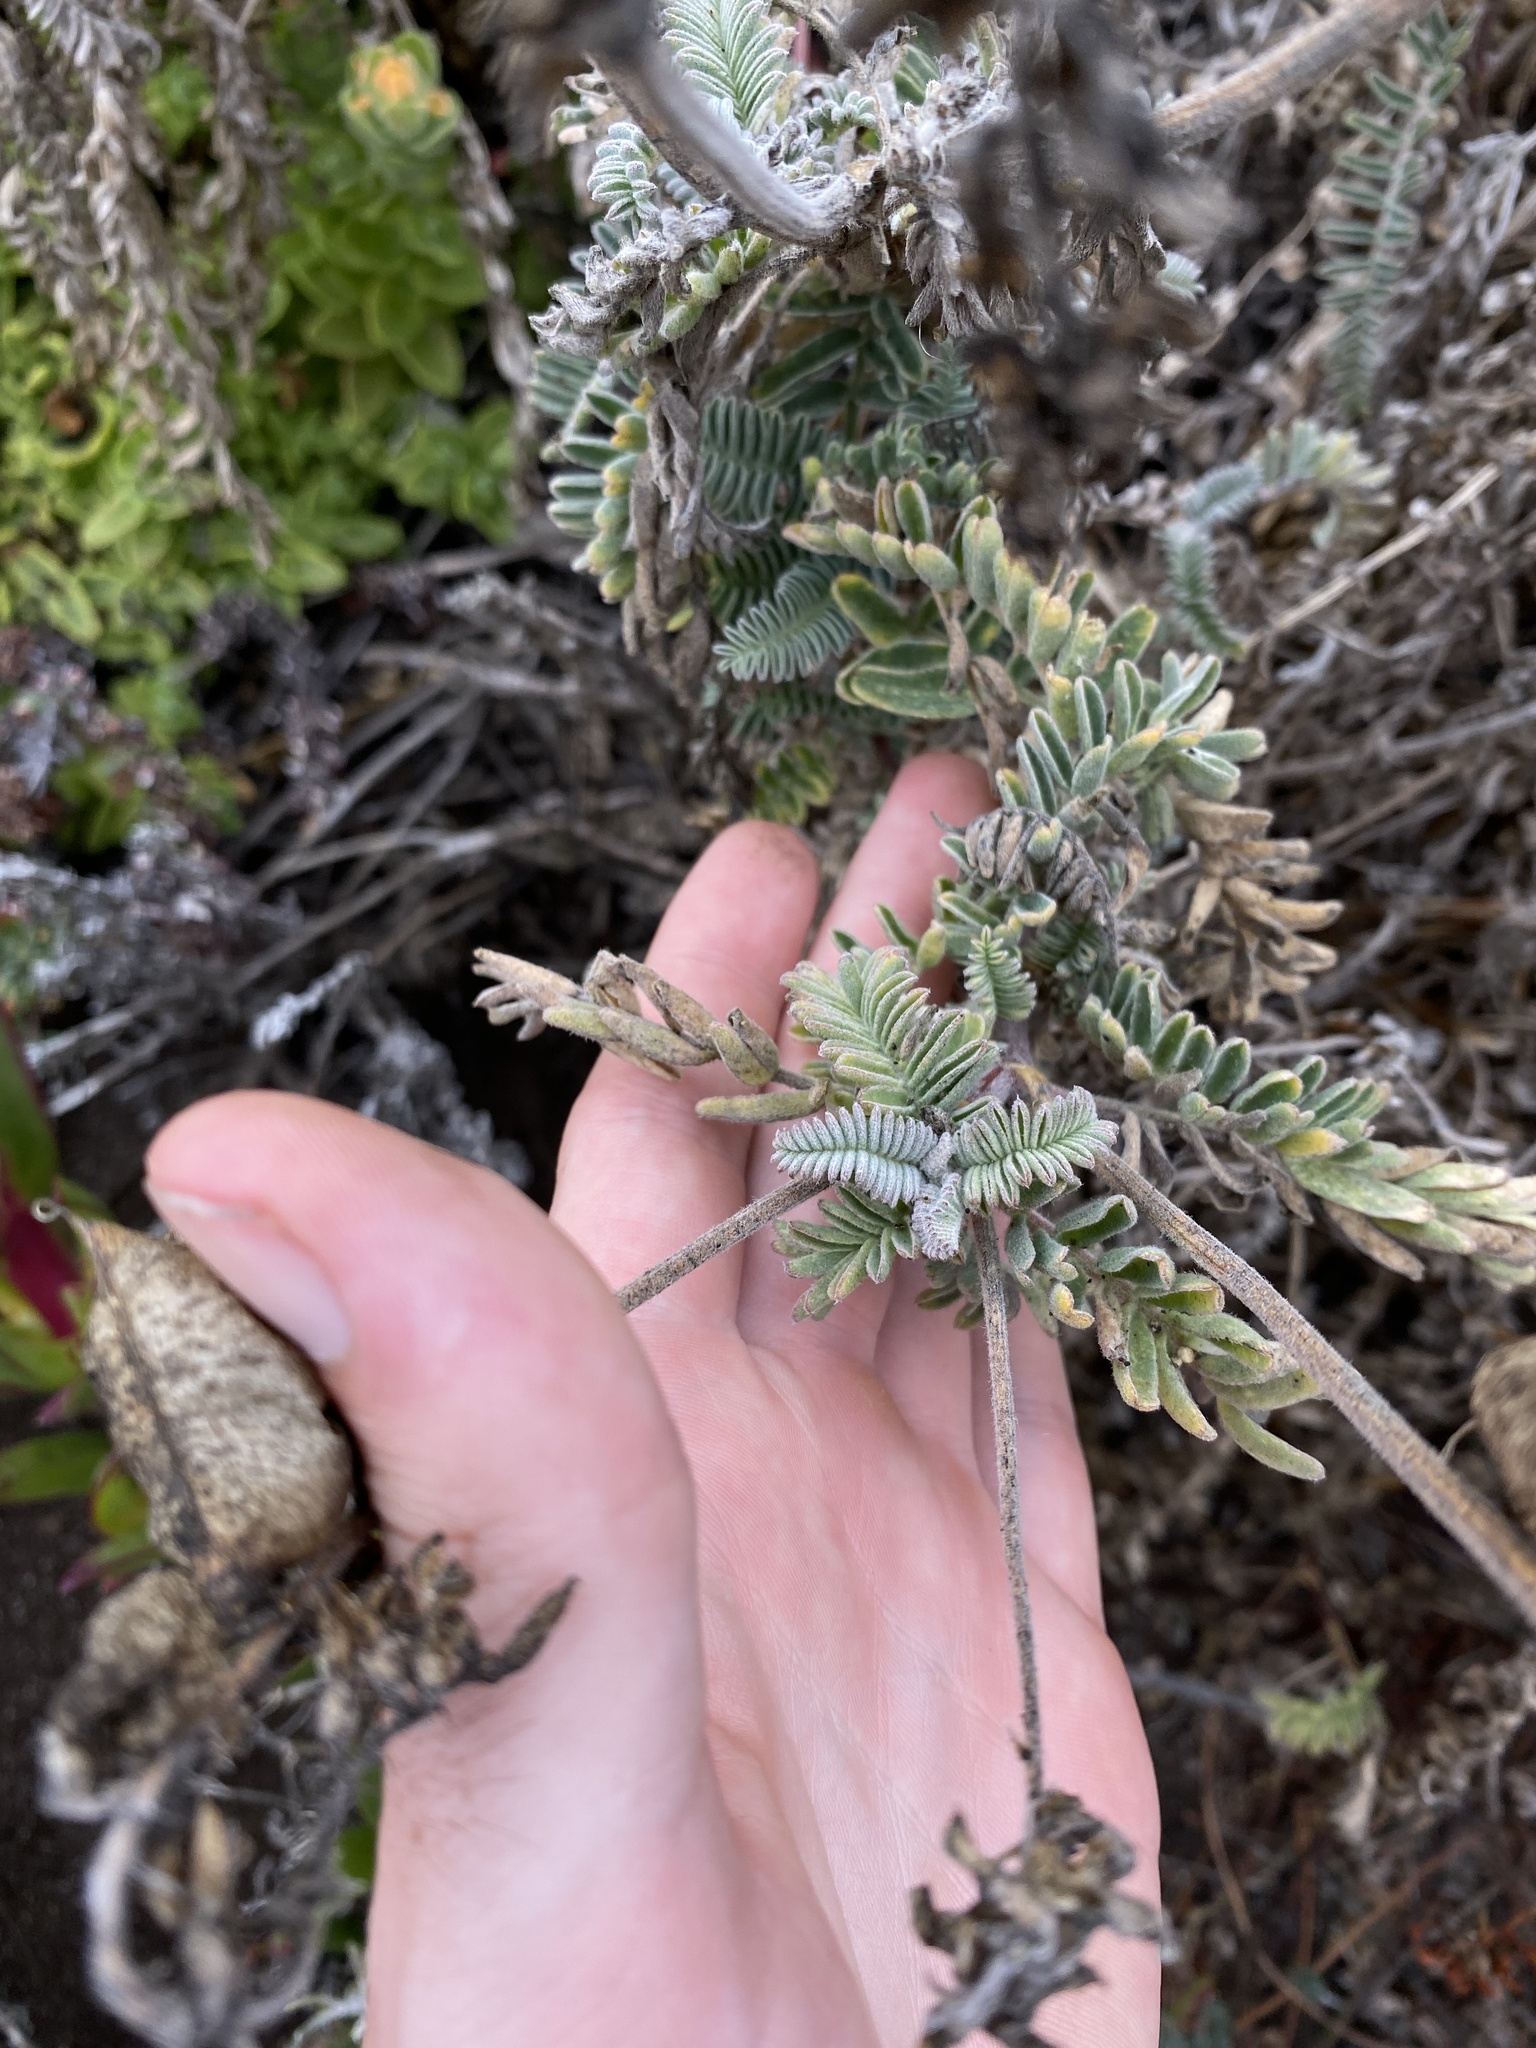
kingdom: Plantae
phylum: Tracheophyta
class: Magnoliopsida
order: Fabales
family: Fabaceae
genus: Astragalus
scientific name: Astragalus nuttallii
